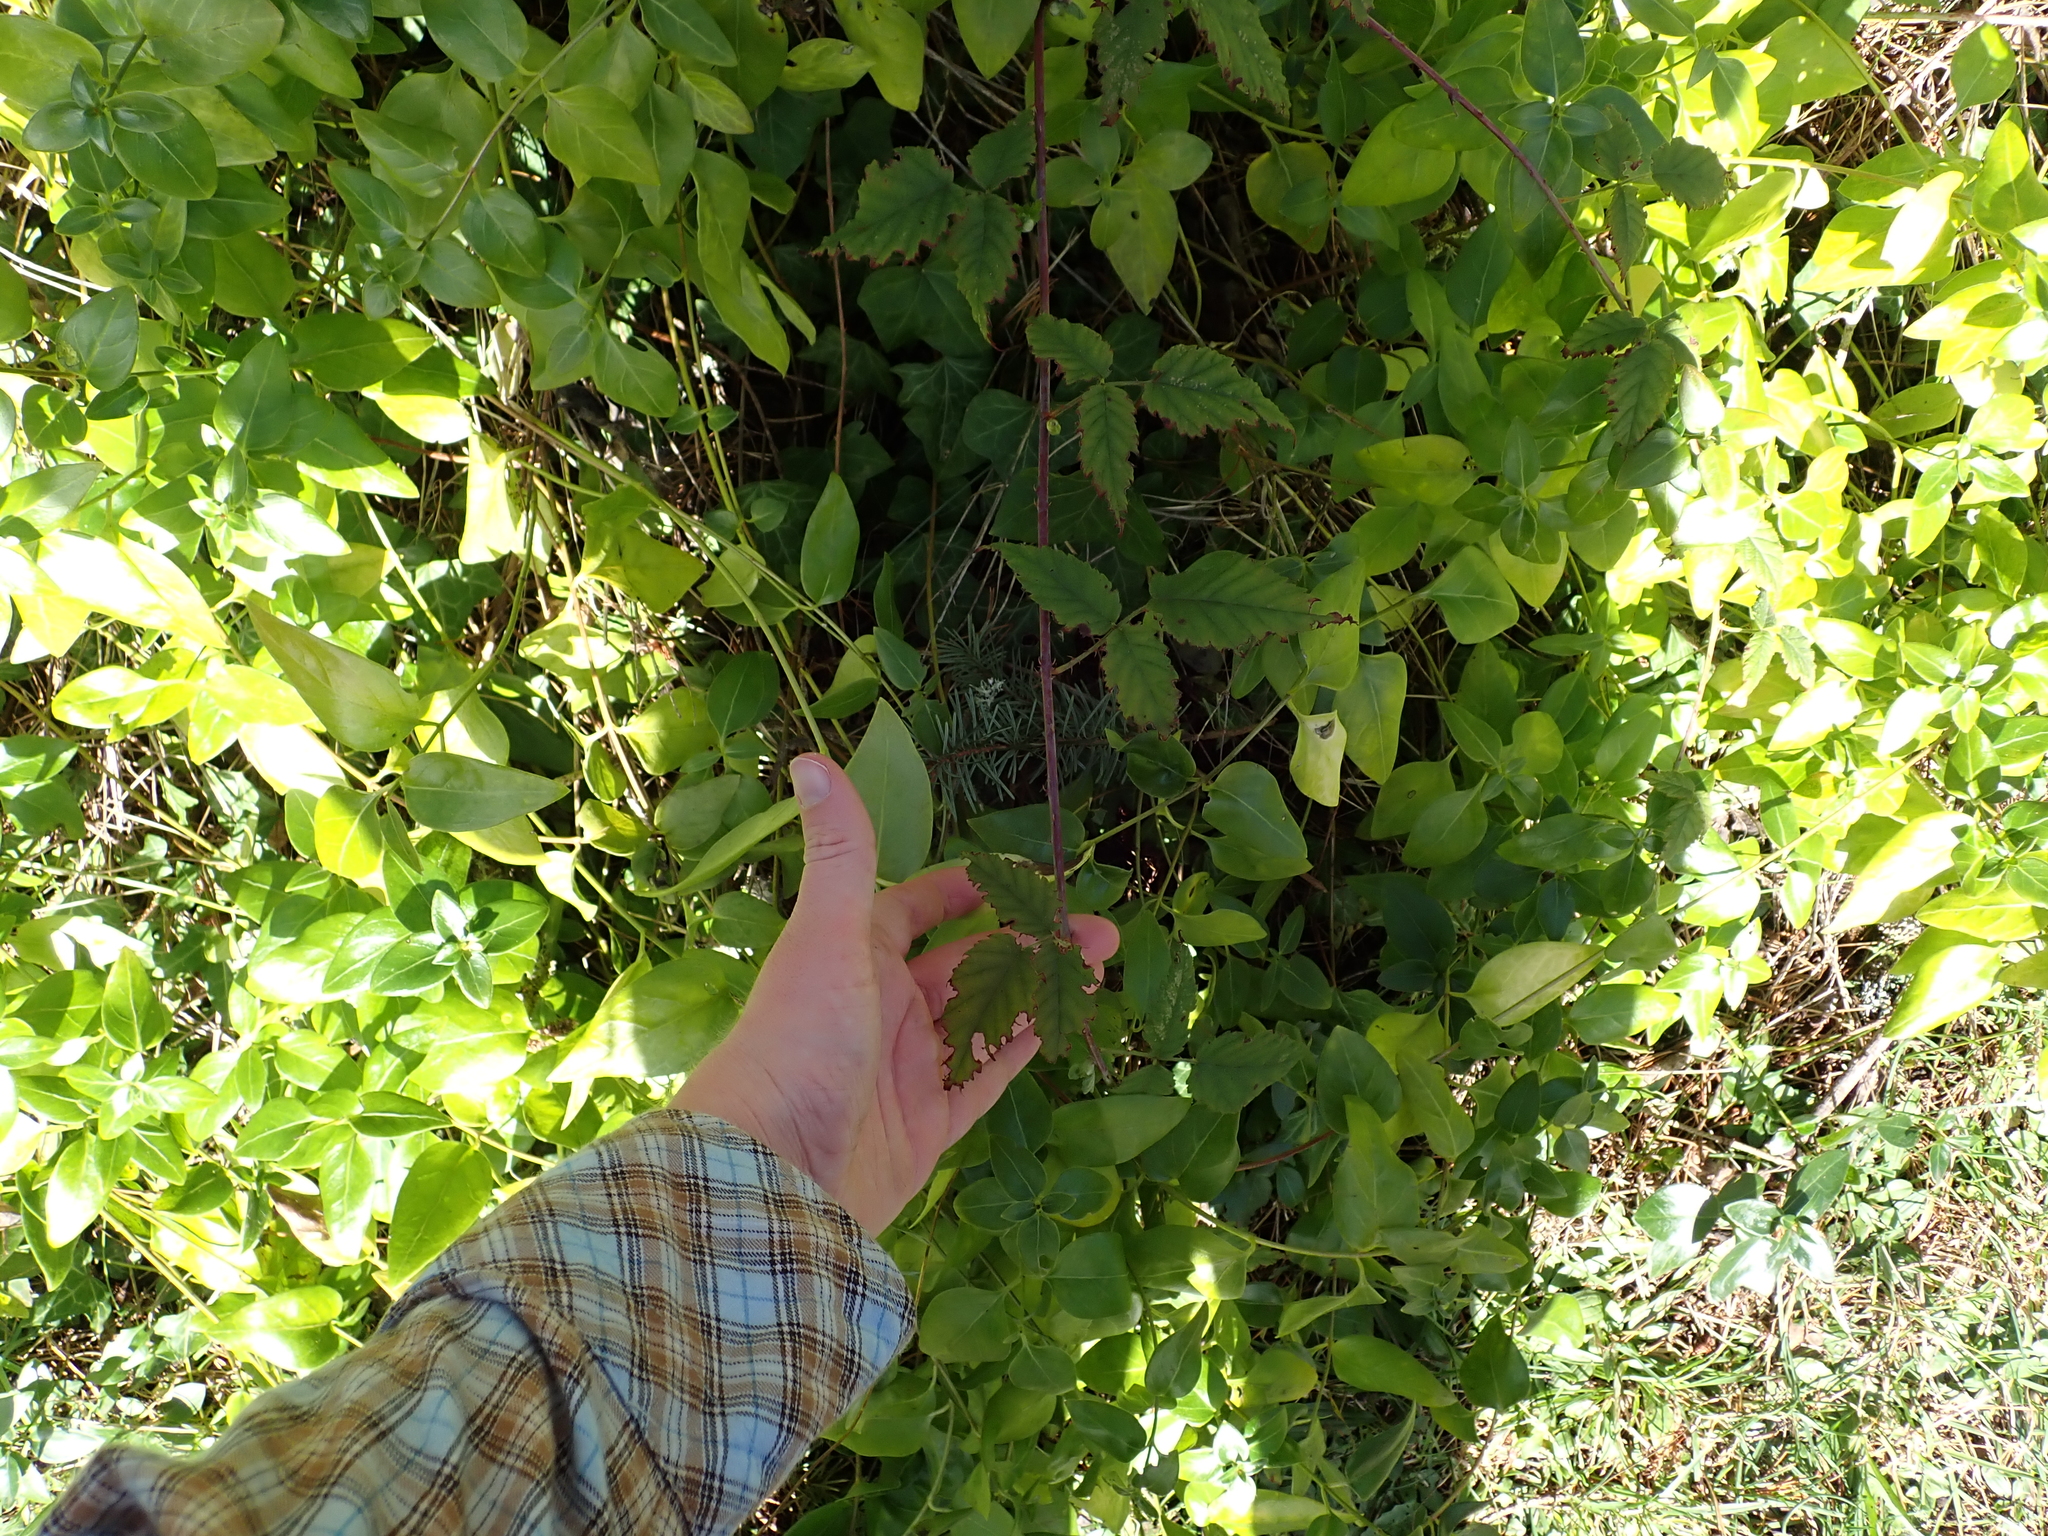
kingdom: Plantae
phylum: Tracheophyta
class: Magnoliopsida
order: Rosales
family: Rosaceae
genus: Rubus
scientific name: Rubus ursinus
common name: Pacific blackberry
